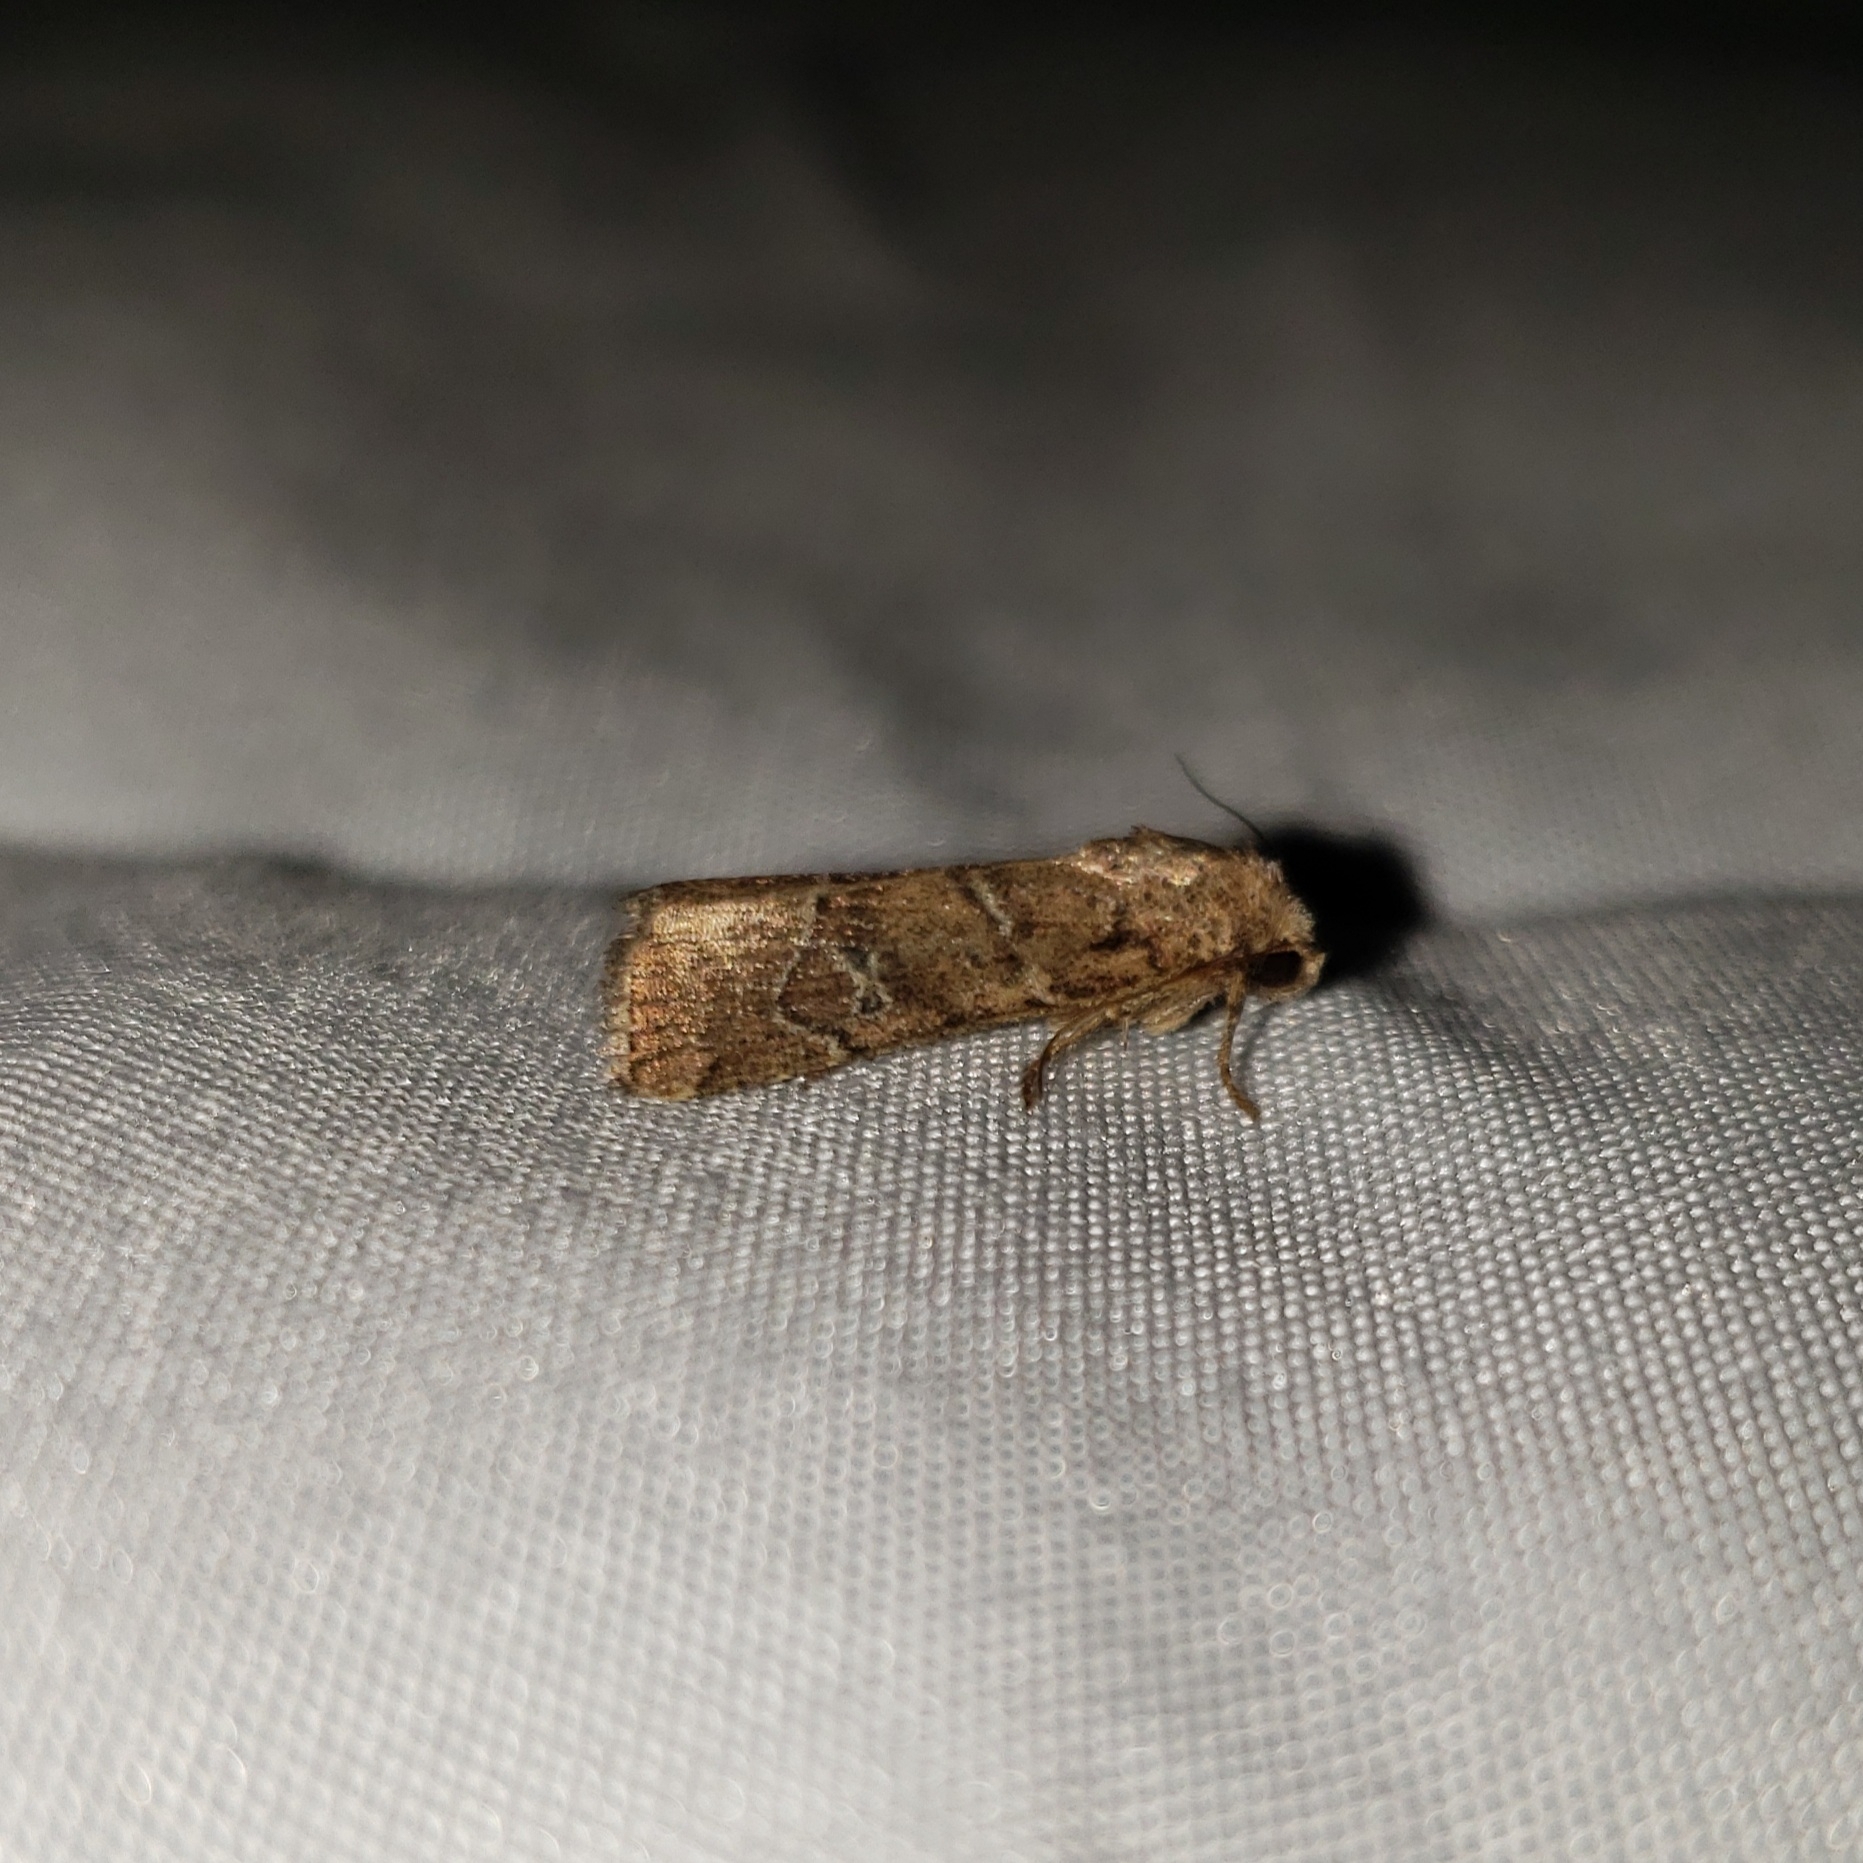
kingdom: Animalia
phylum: Arthropoda
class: Insecta
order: Lepidoptera
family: Noctuidae
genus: Elaphria
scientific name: Elaphria grata
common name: Grateful midget moth
